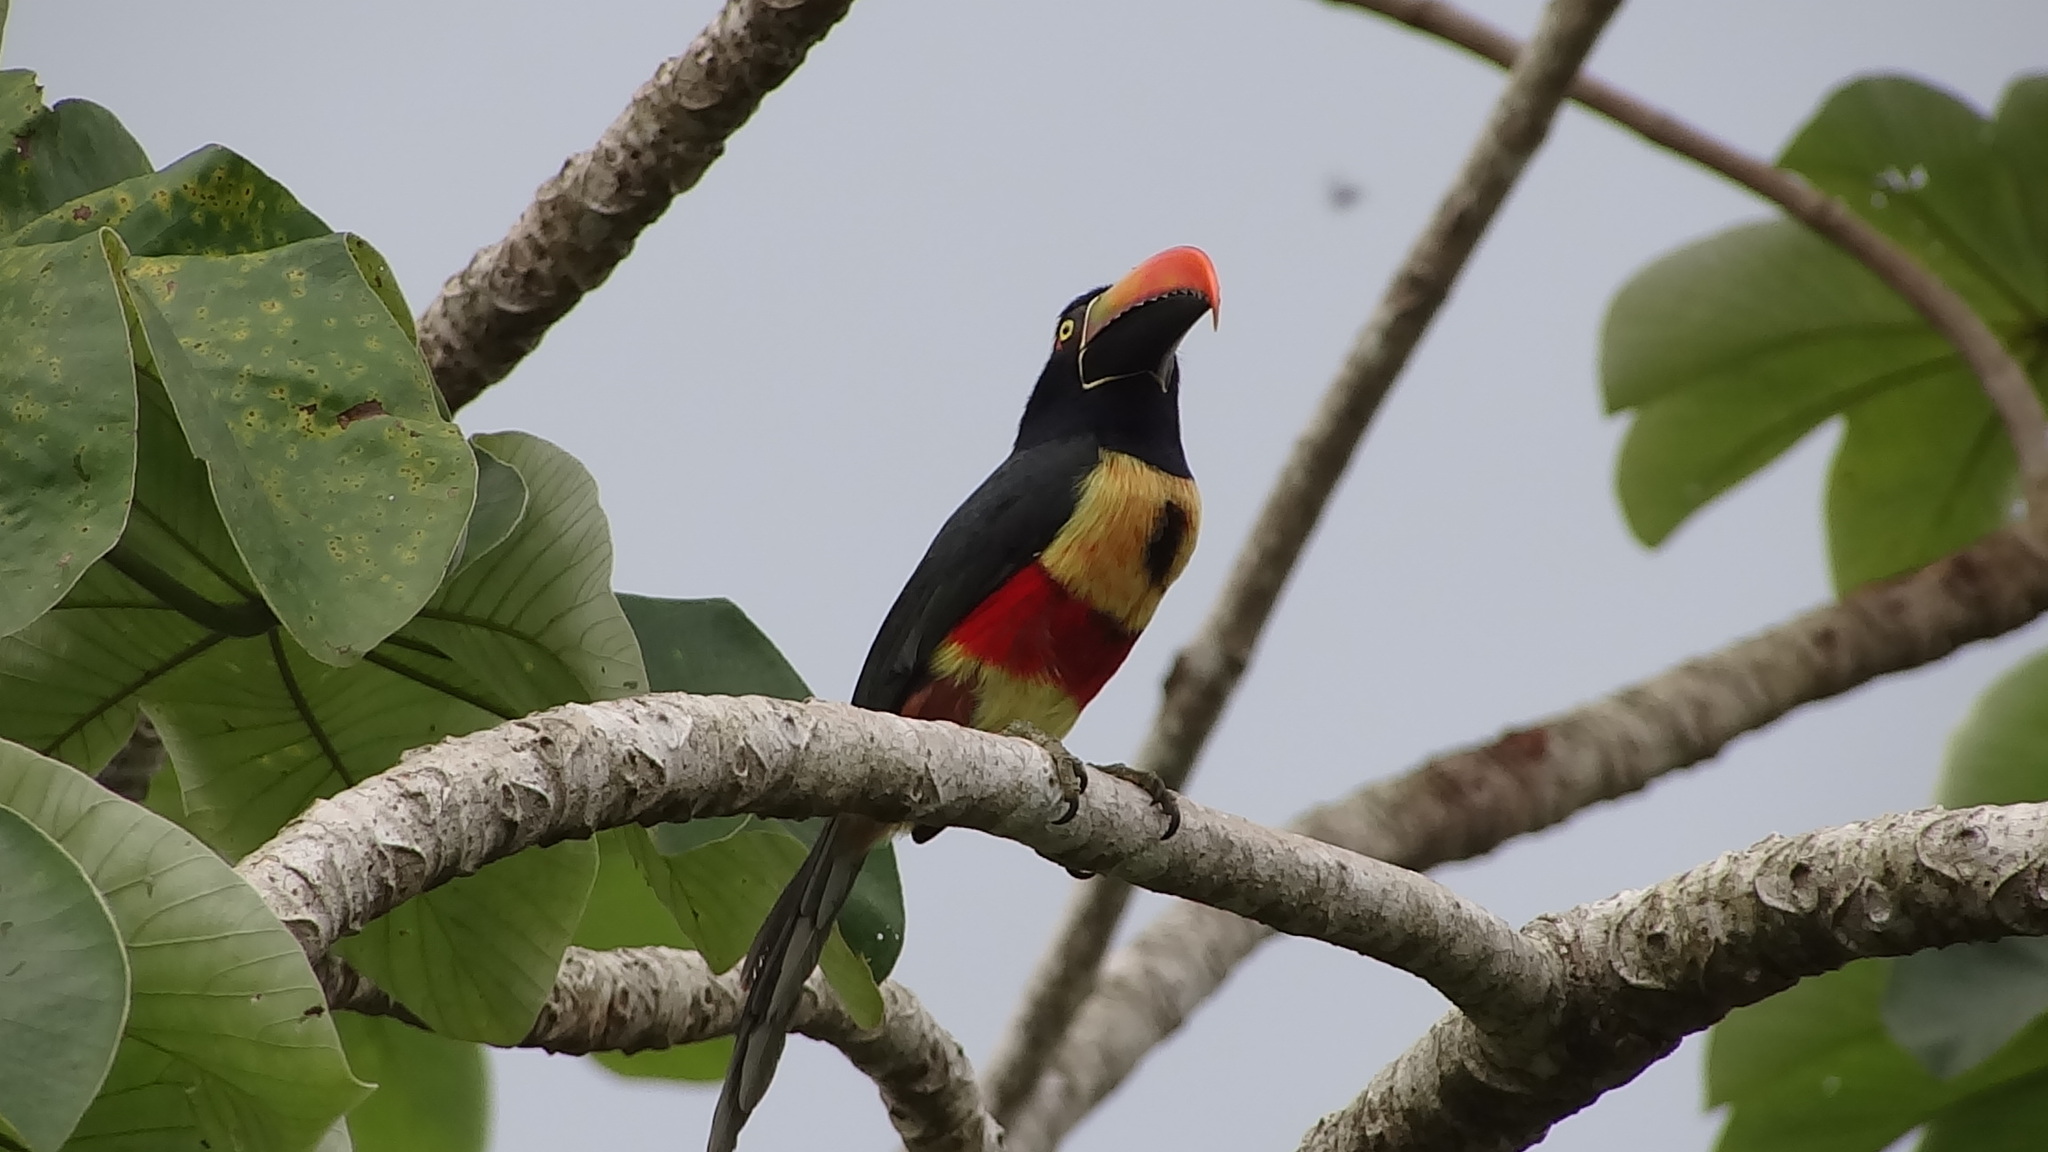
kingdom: Animalia
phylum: Chordata
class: Aves
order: Piciformes
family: Ramphastidae
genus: Pteroglossus
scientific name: Pteroglossus frantzii
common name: Fiery-billed aracari
